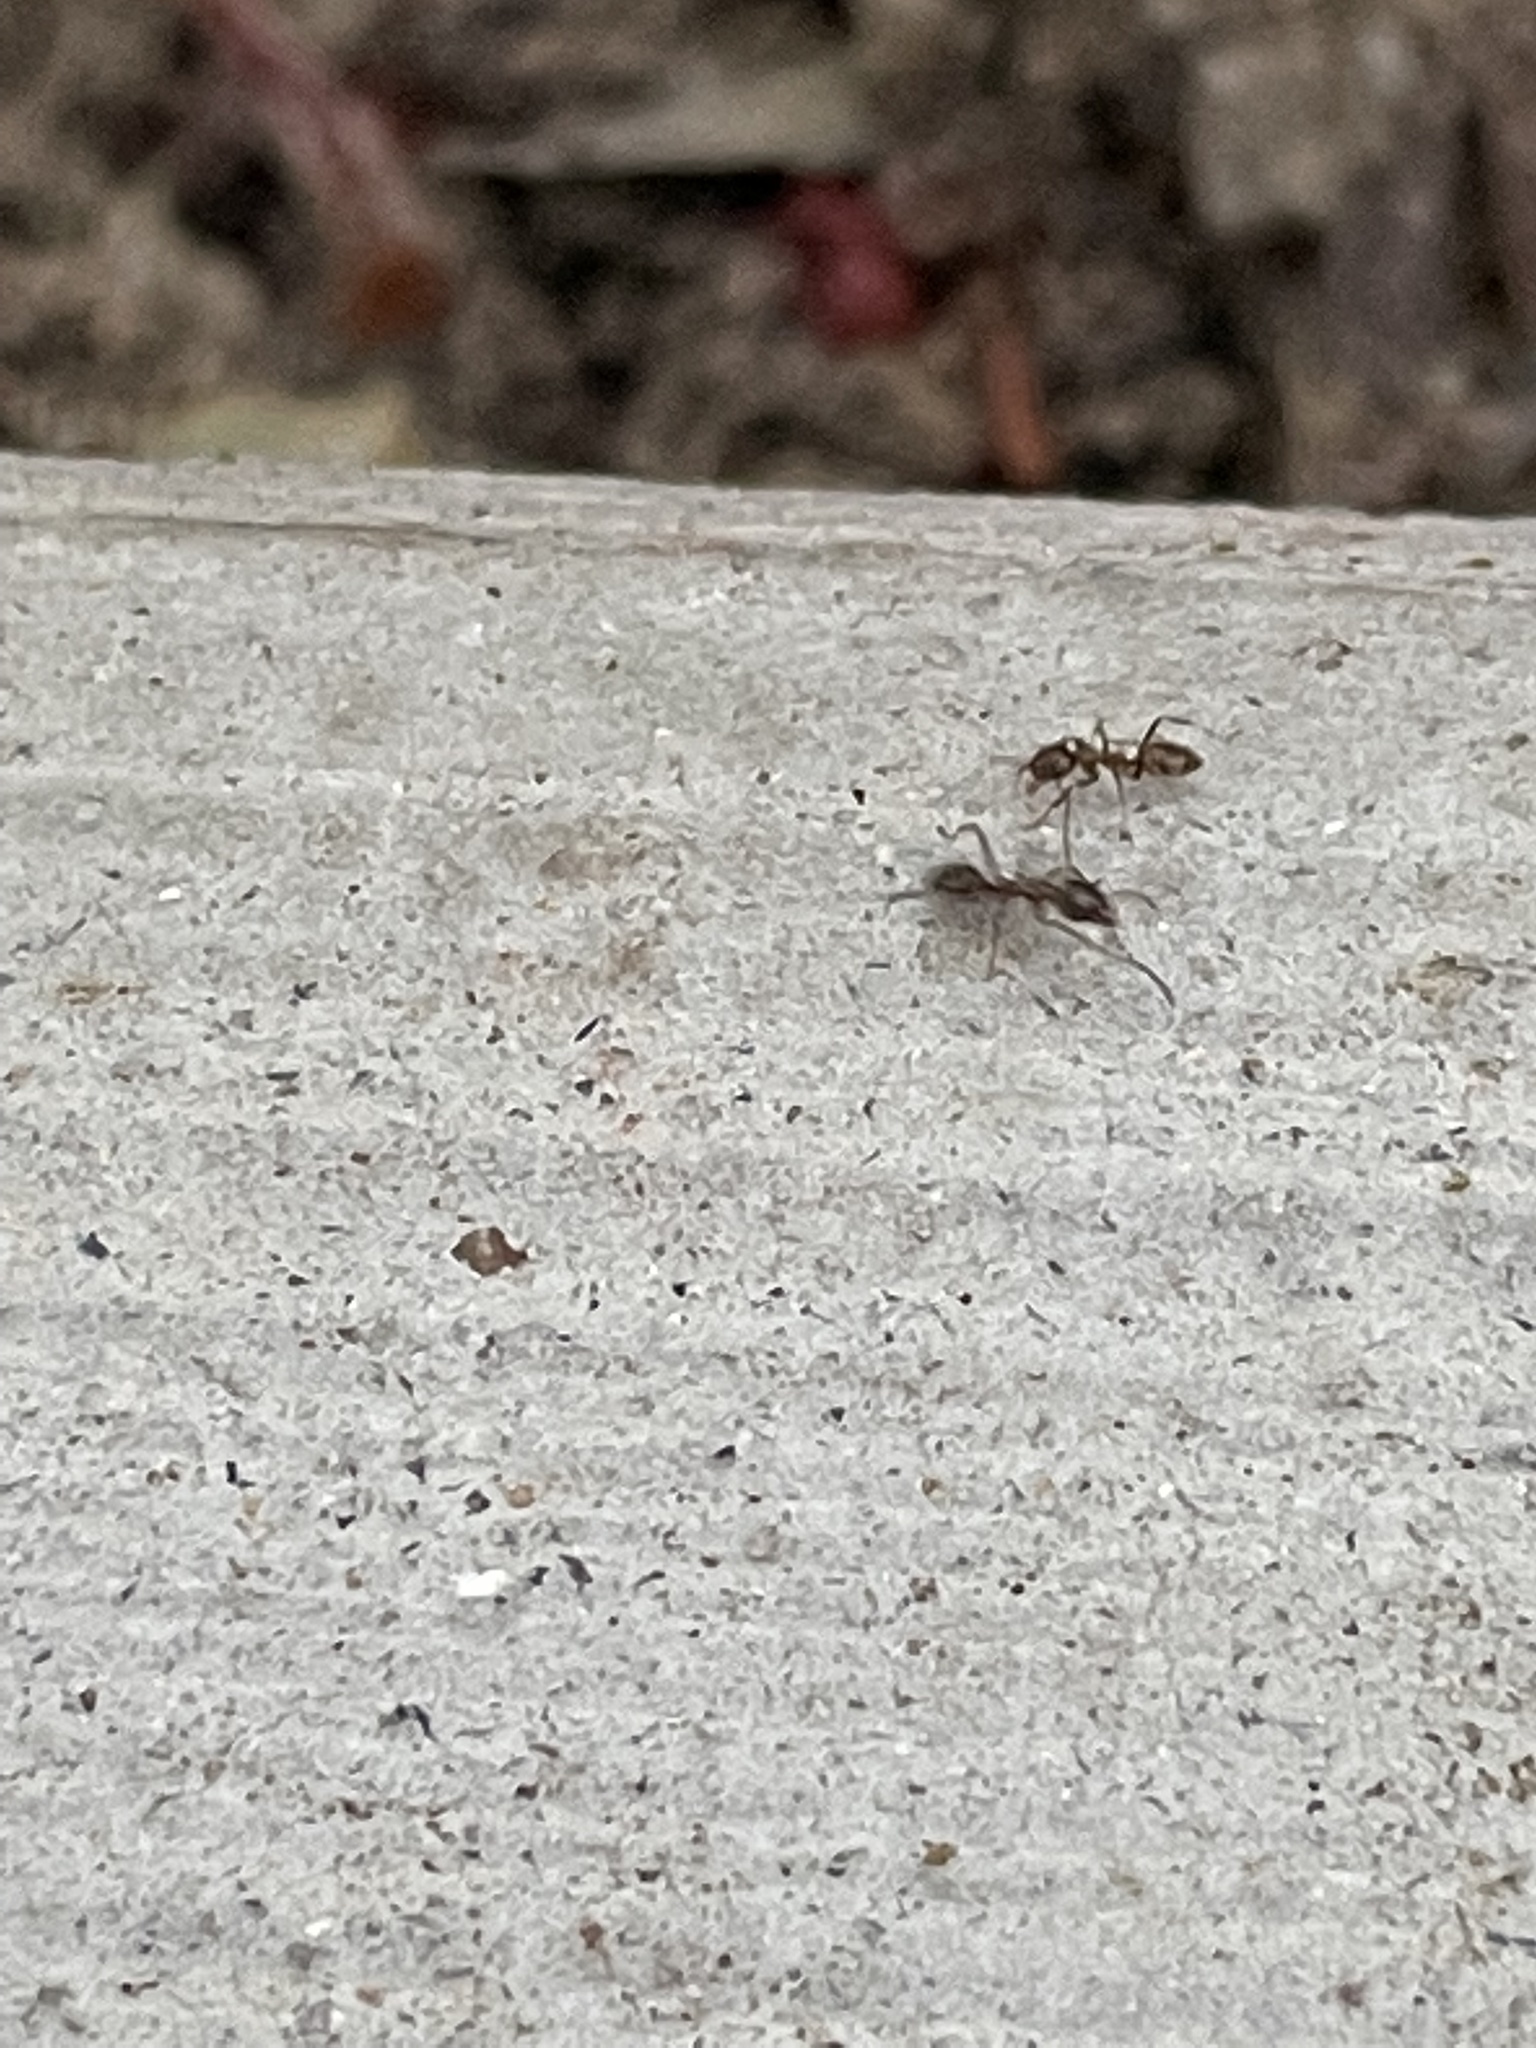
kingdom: Animalia
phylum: Arthropoda
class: Insecta
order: Hymenoptera
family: Formicidae
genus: Linepithema
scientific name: Linepithema humile
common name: Argentine ant
